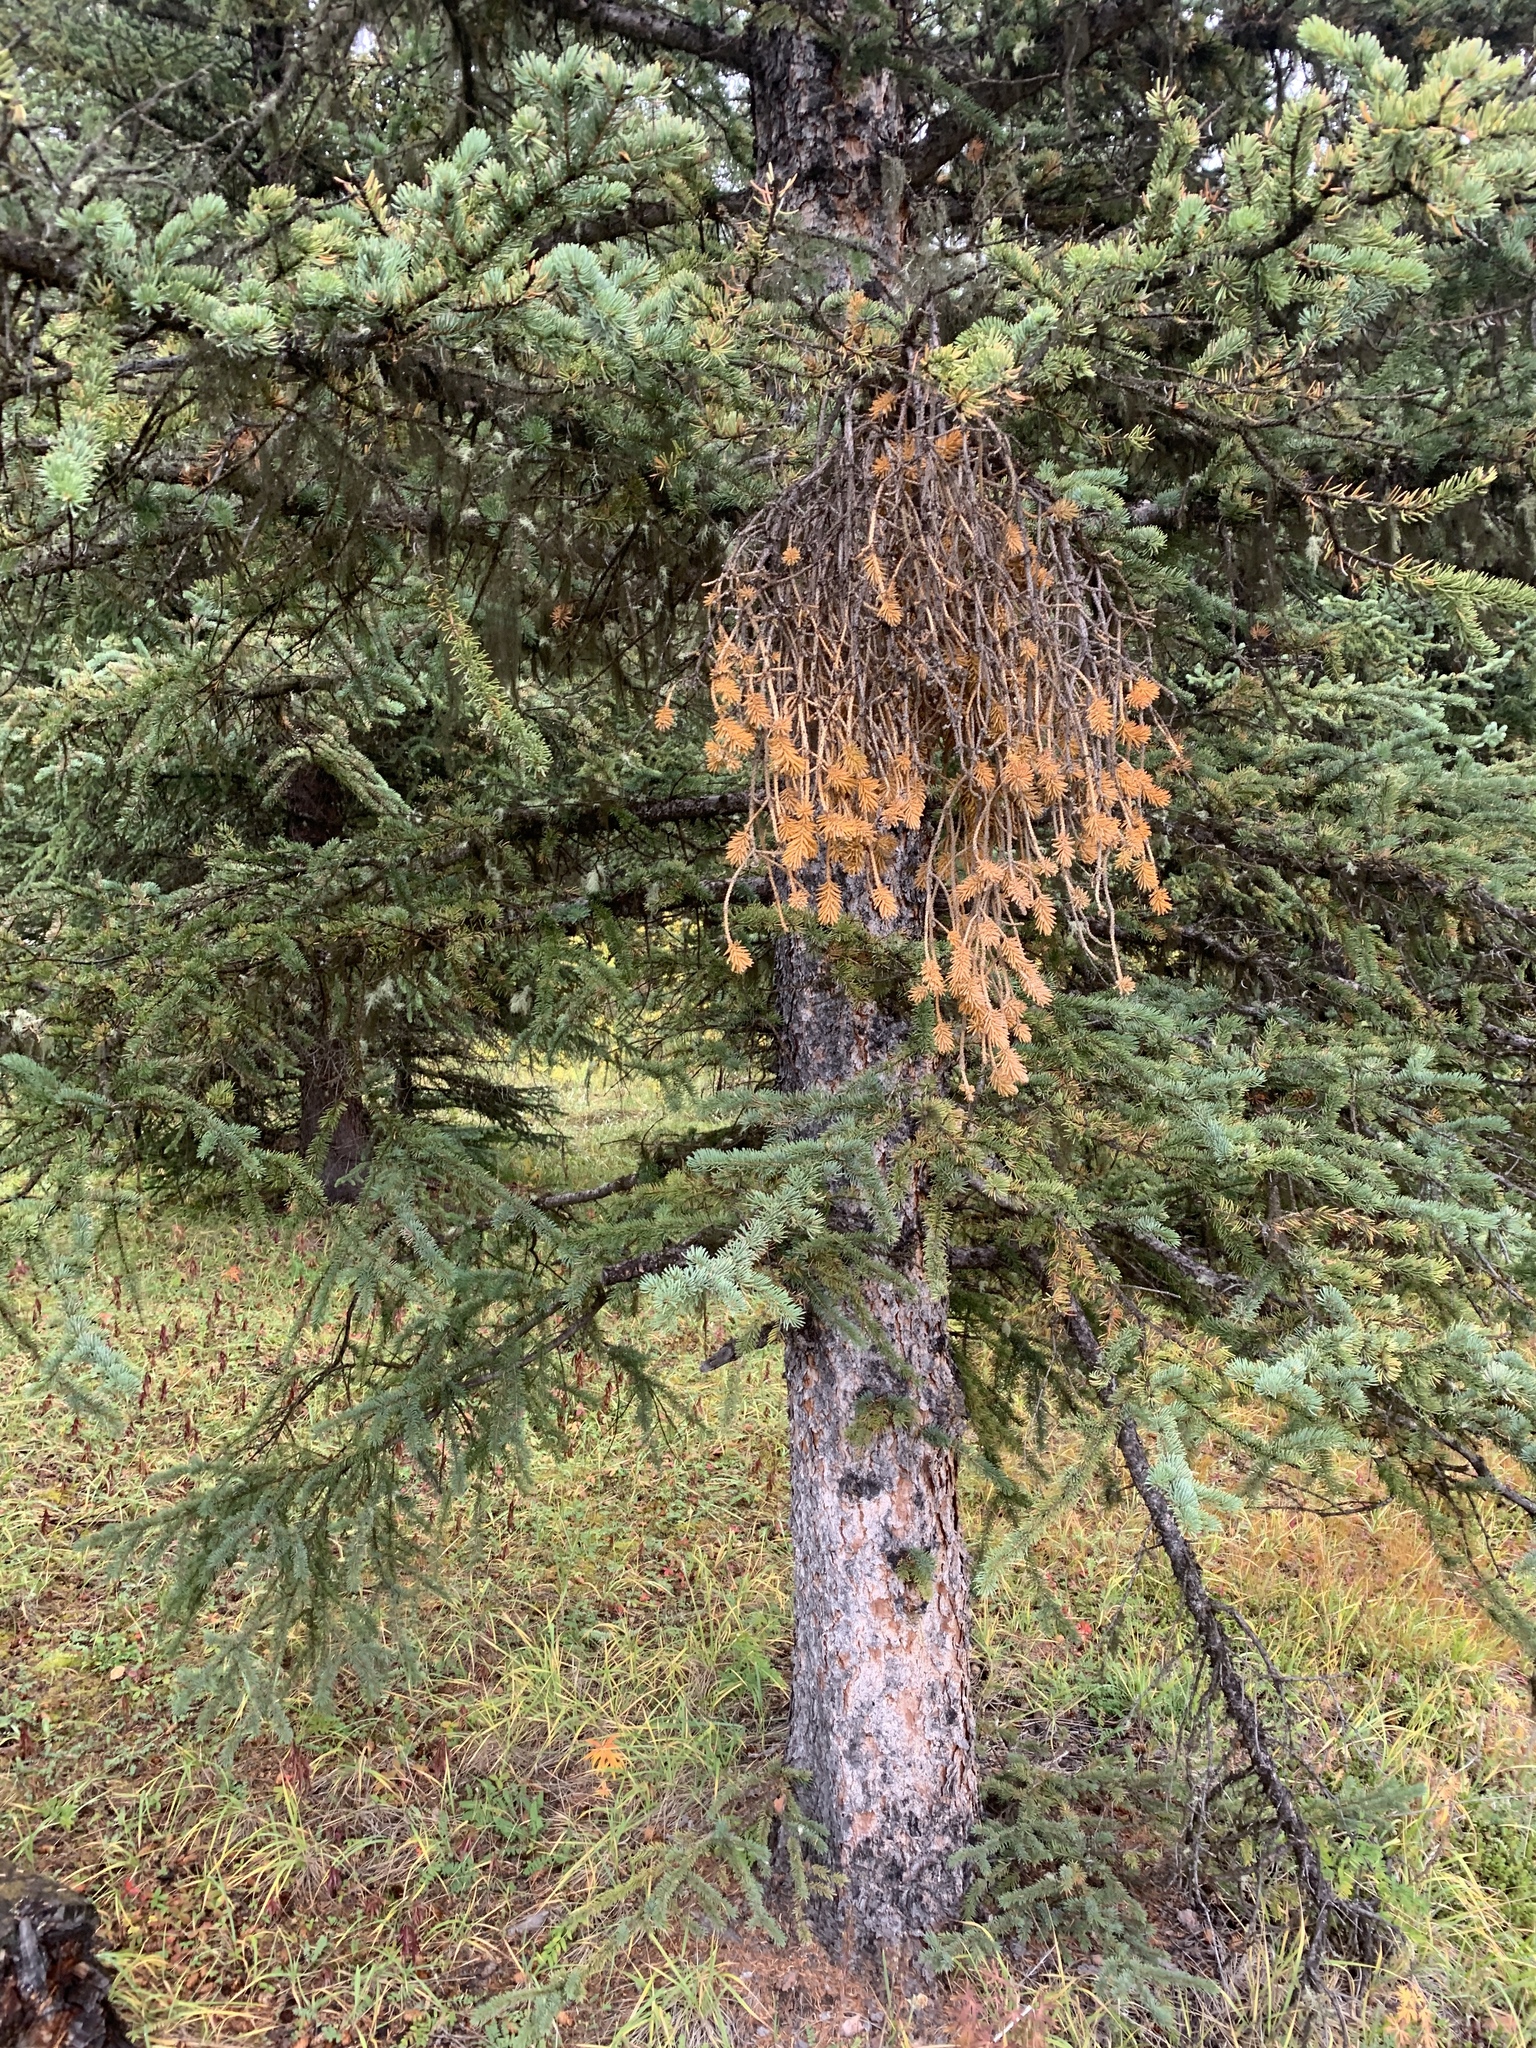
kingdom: Plantae
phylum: Tracheophyta
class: Pinopsida
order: Pinales
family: Pinaceae
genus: Picea
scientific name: Picea glauca
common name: White spruce
